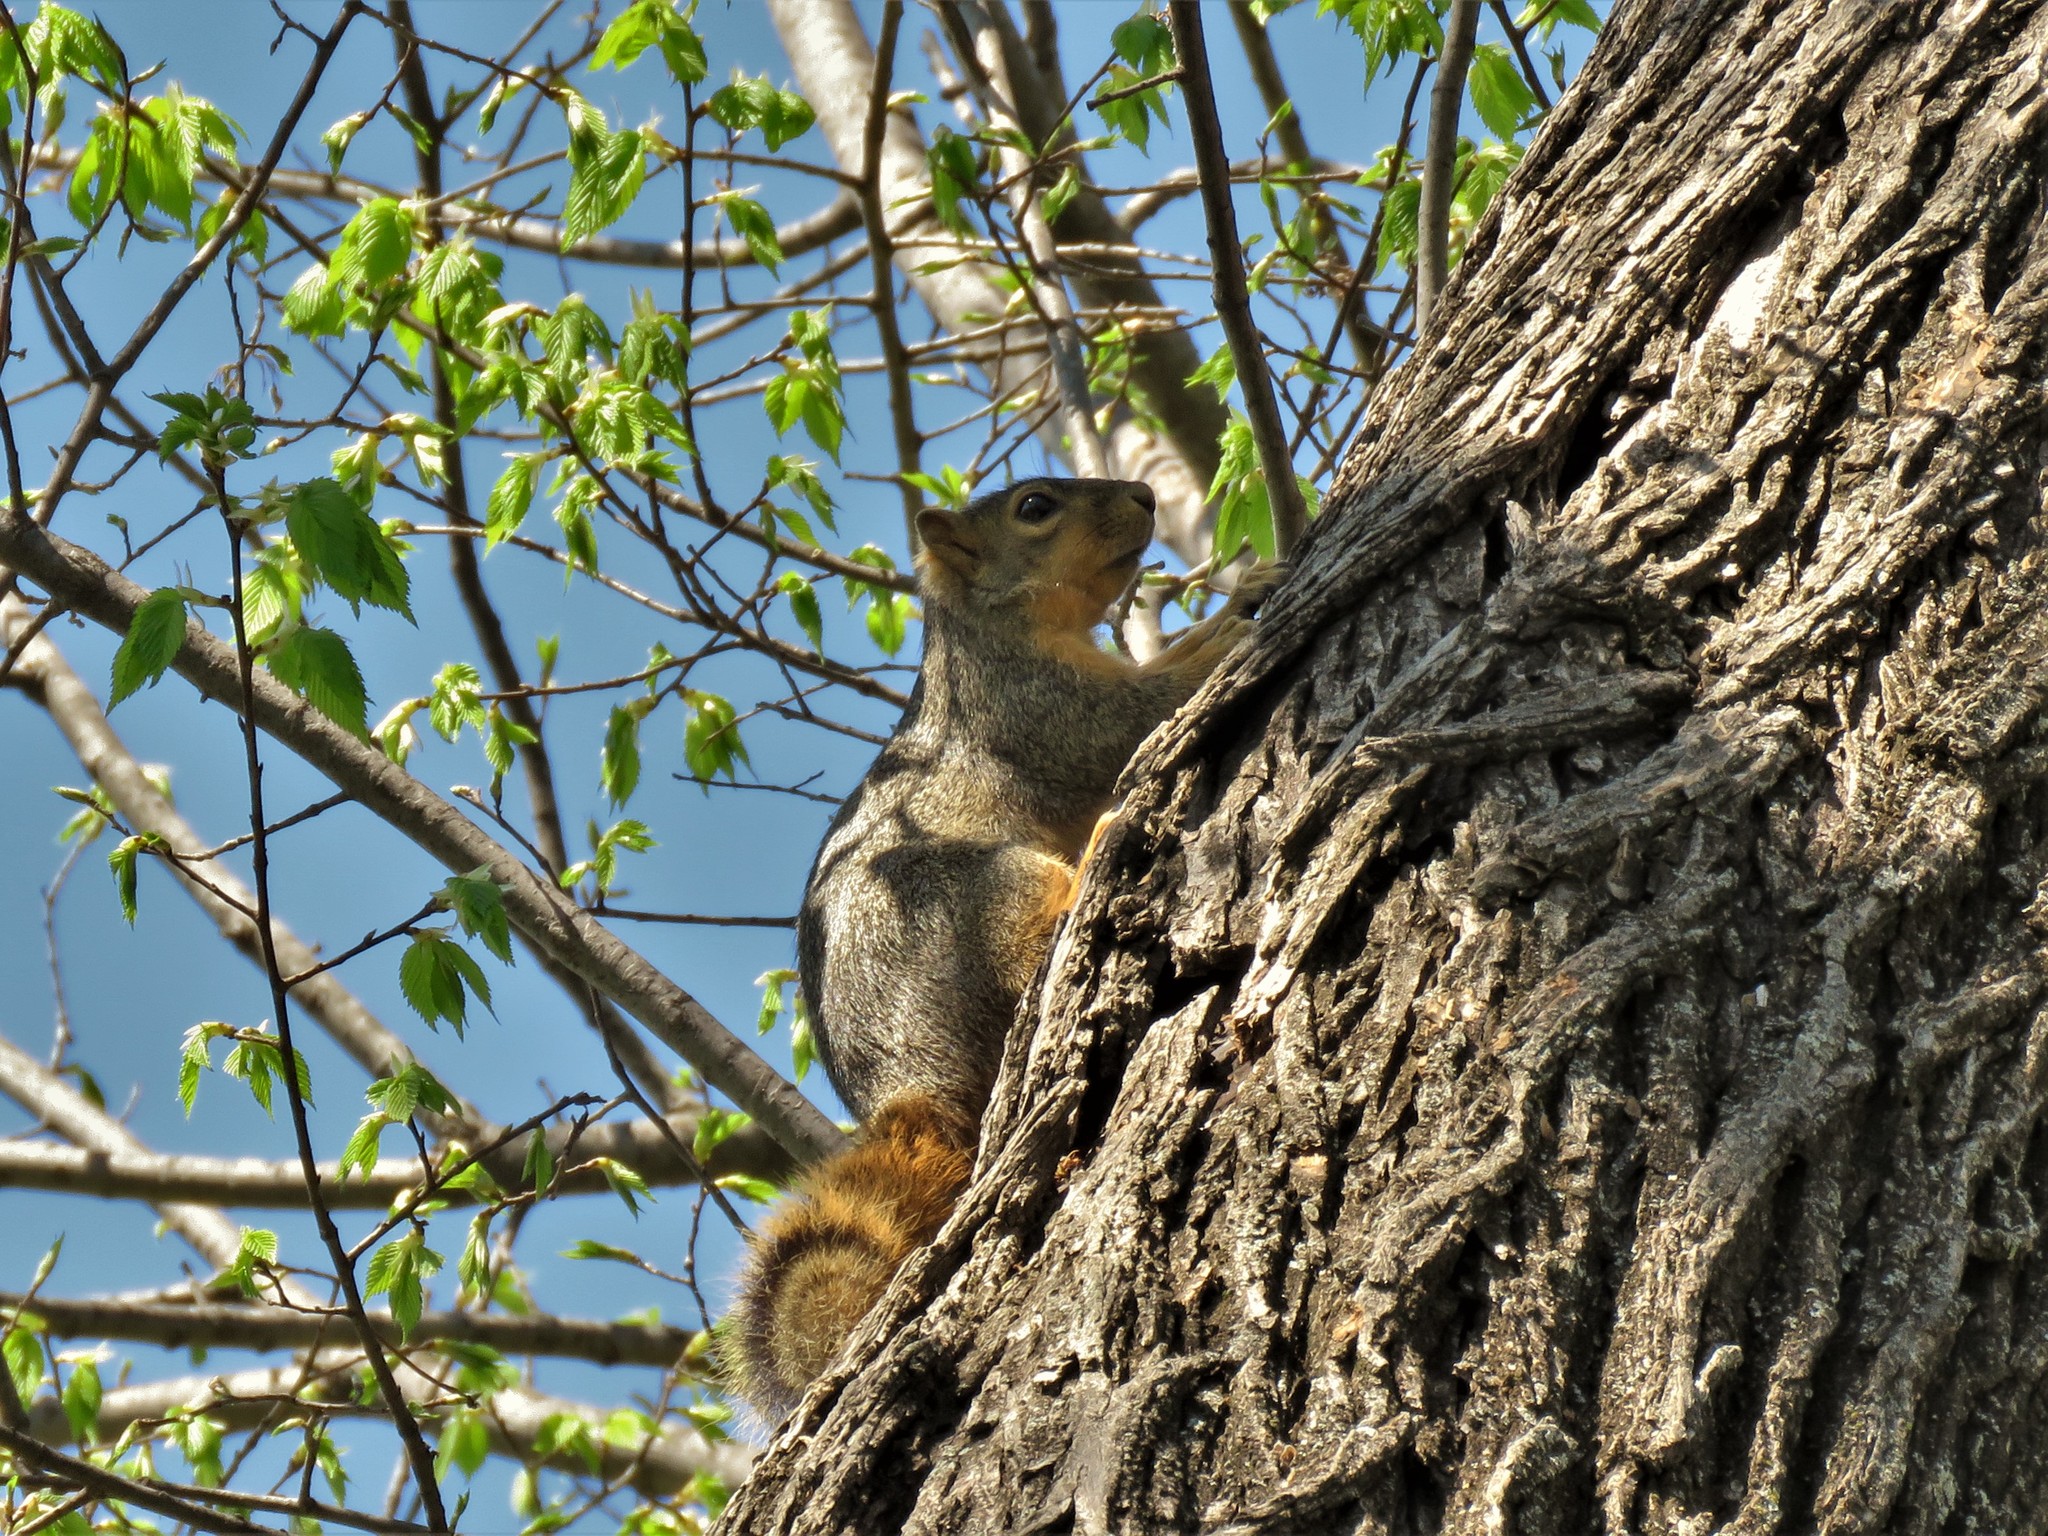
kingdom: Animalia
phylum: Chordata
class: Mammalia
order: Rodentia
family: Sciuridae
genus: Sciurus
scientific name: Sciurus niger
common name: Fox squirrel
